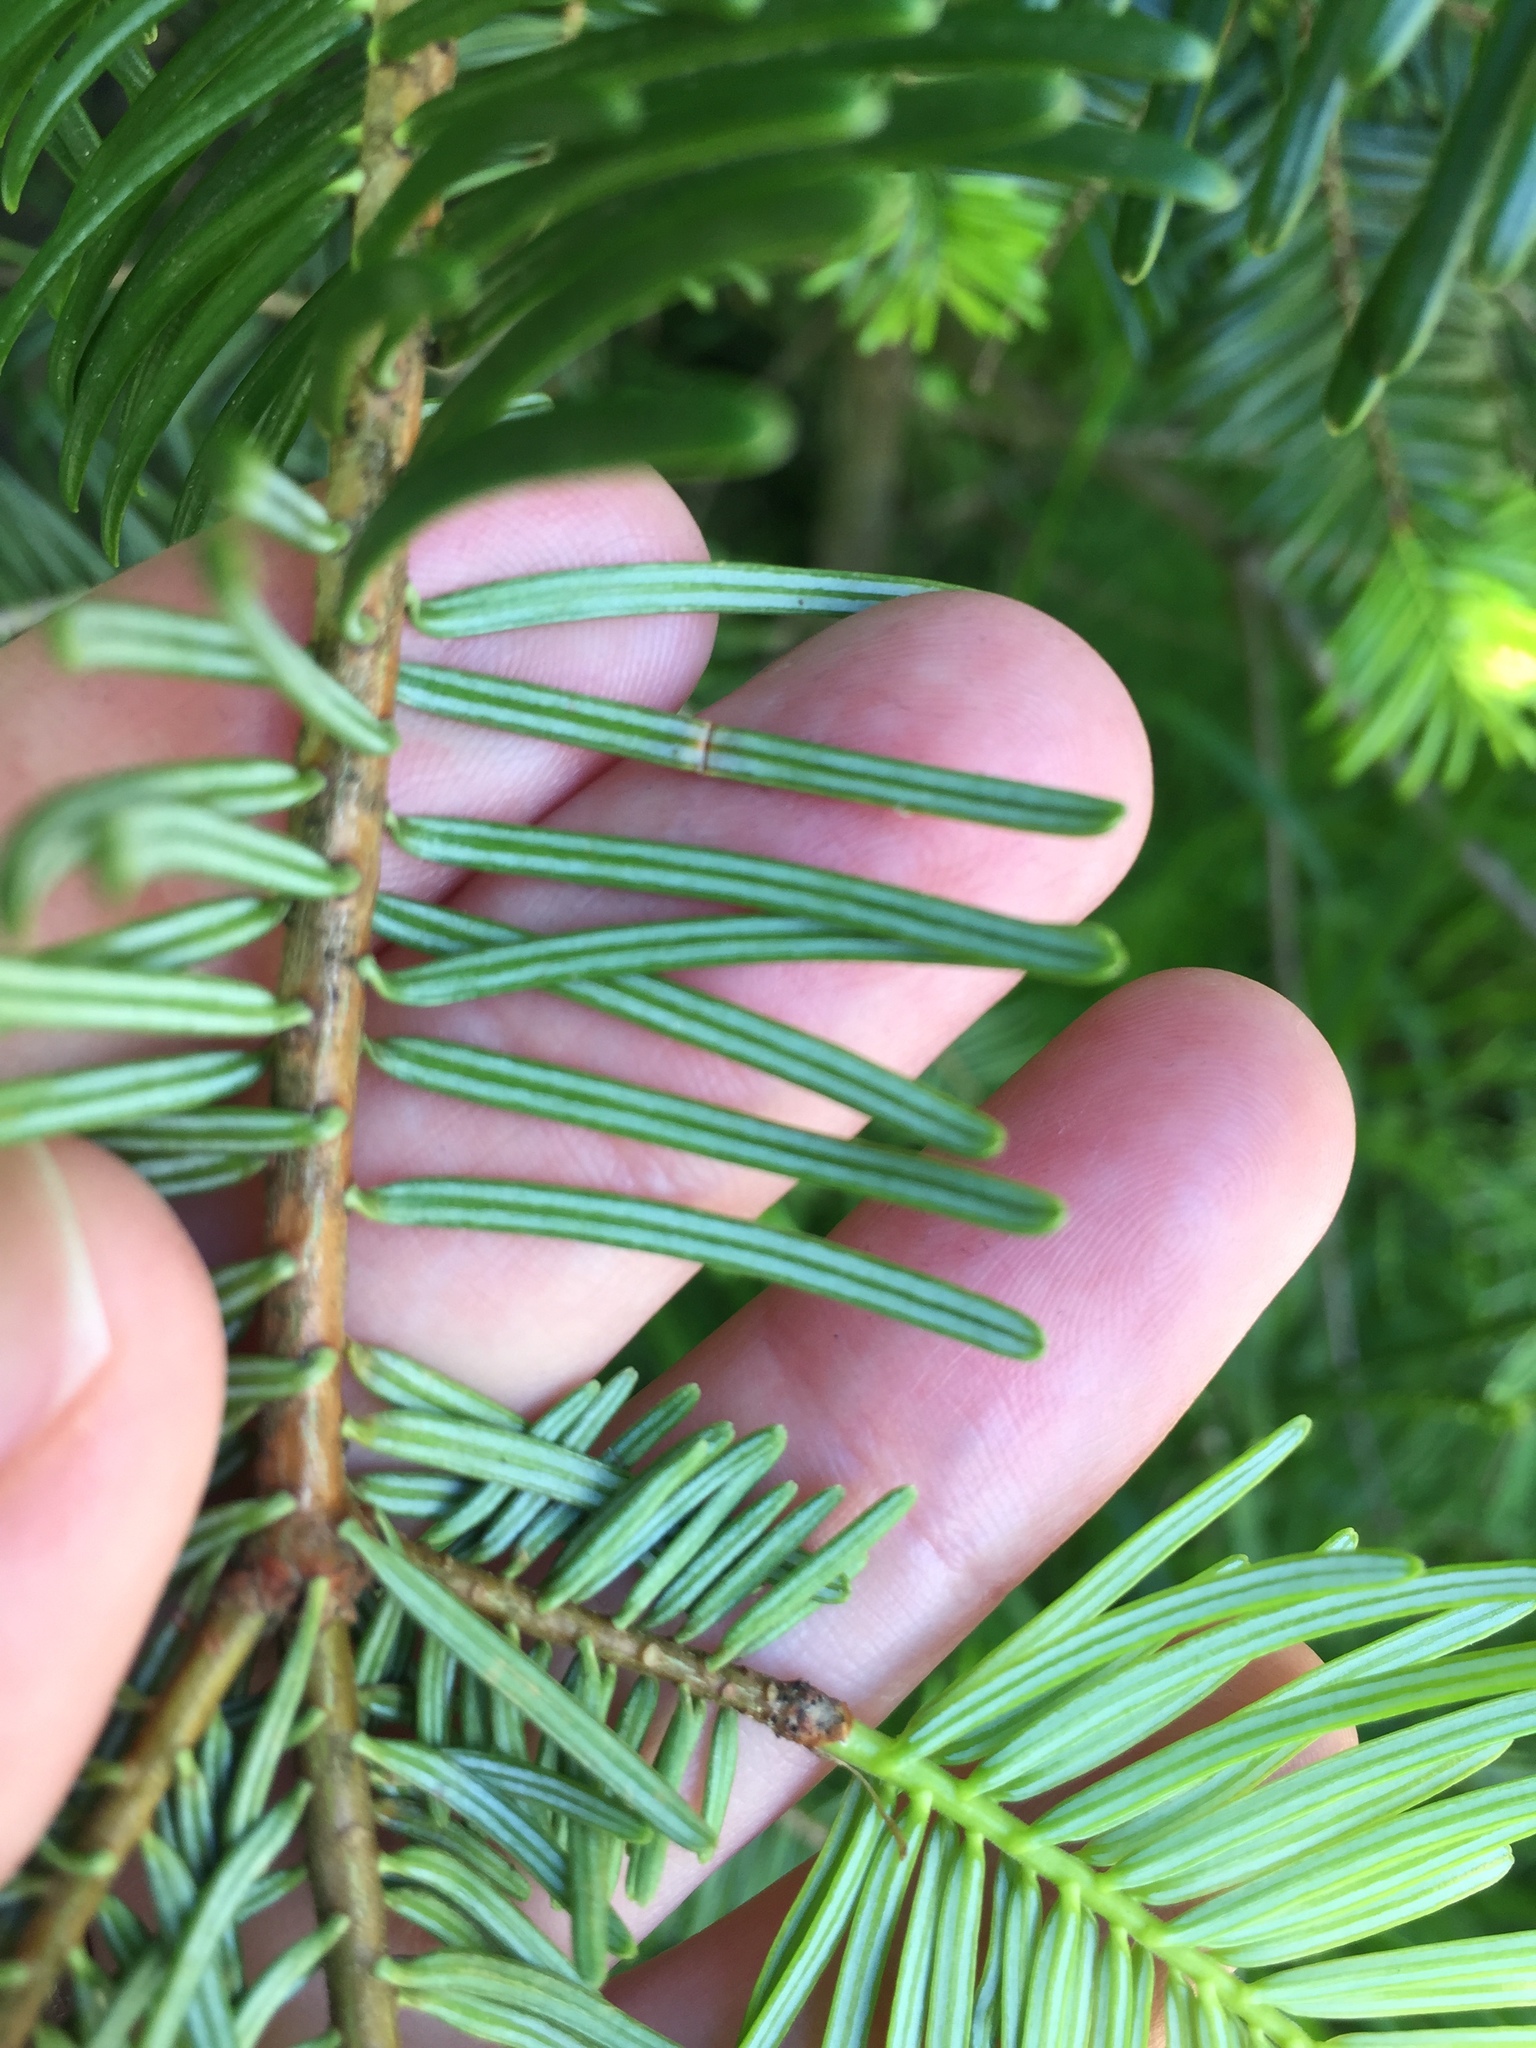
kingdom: Plantae
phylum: Tracheophyta
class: Pinopsida
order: Pinales
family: Pinaceae
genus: Abies
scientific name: Abies grandis
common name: Giant fir
